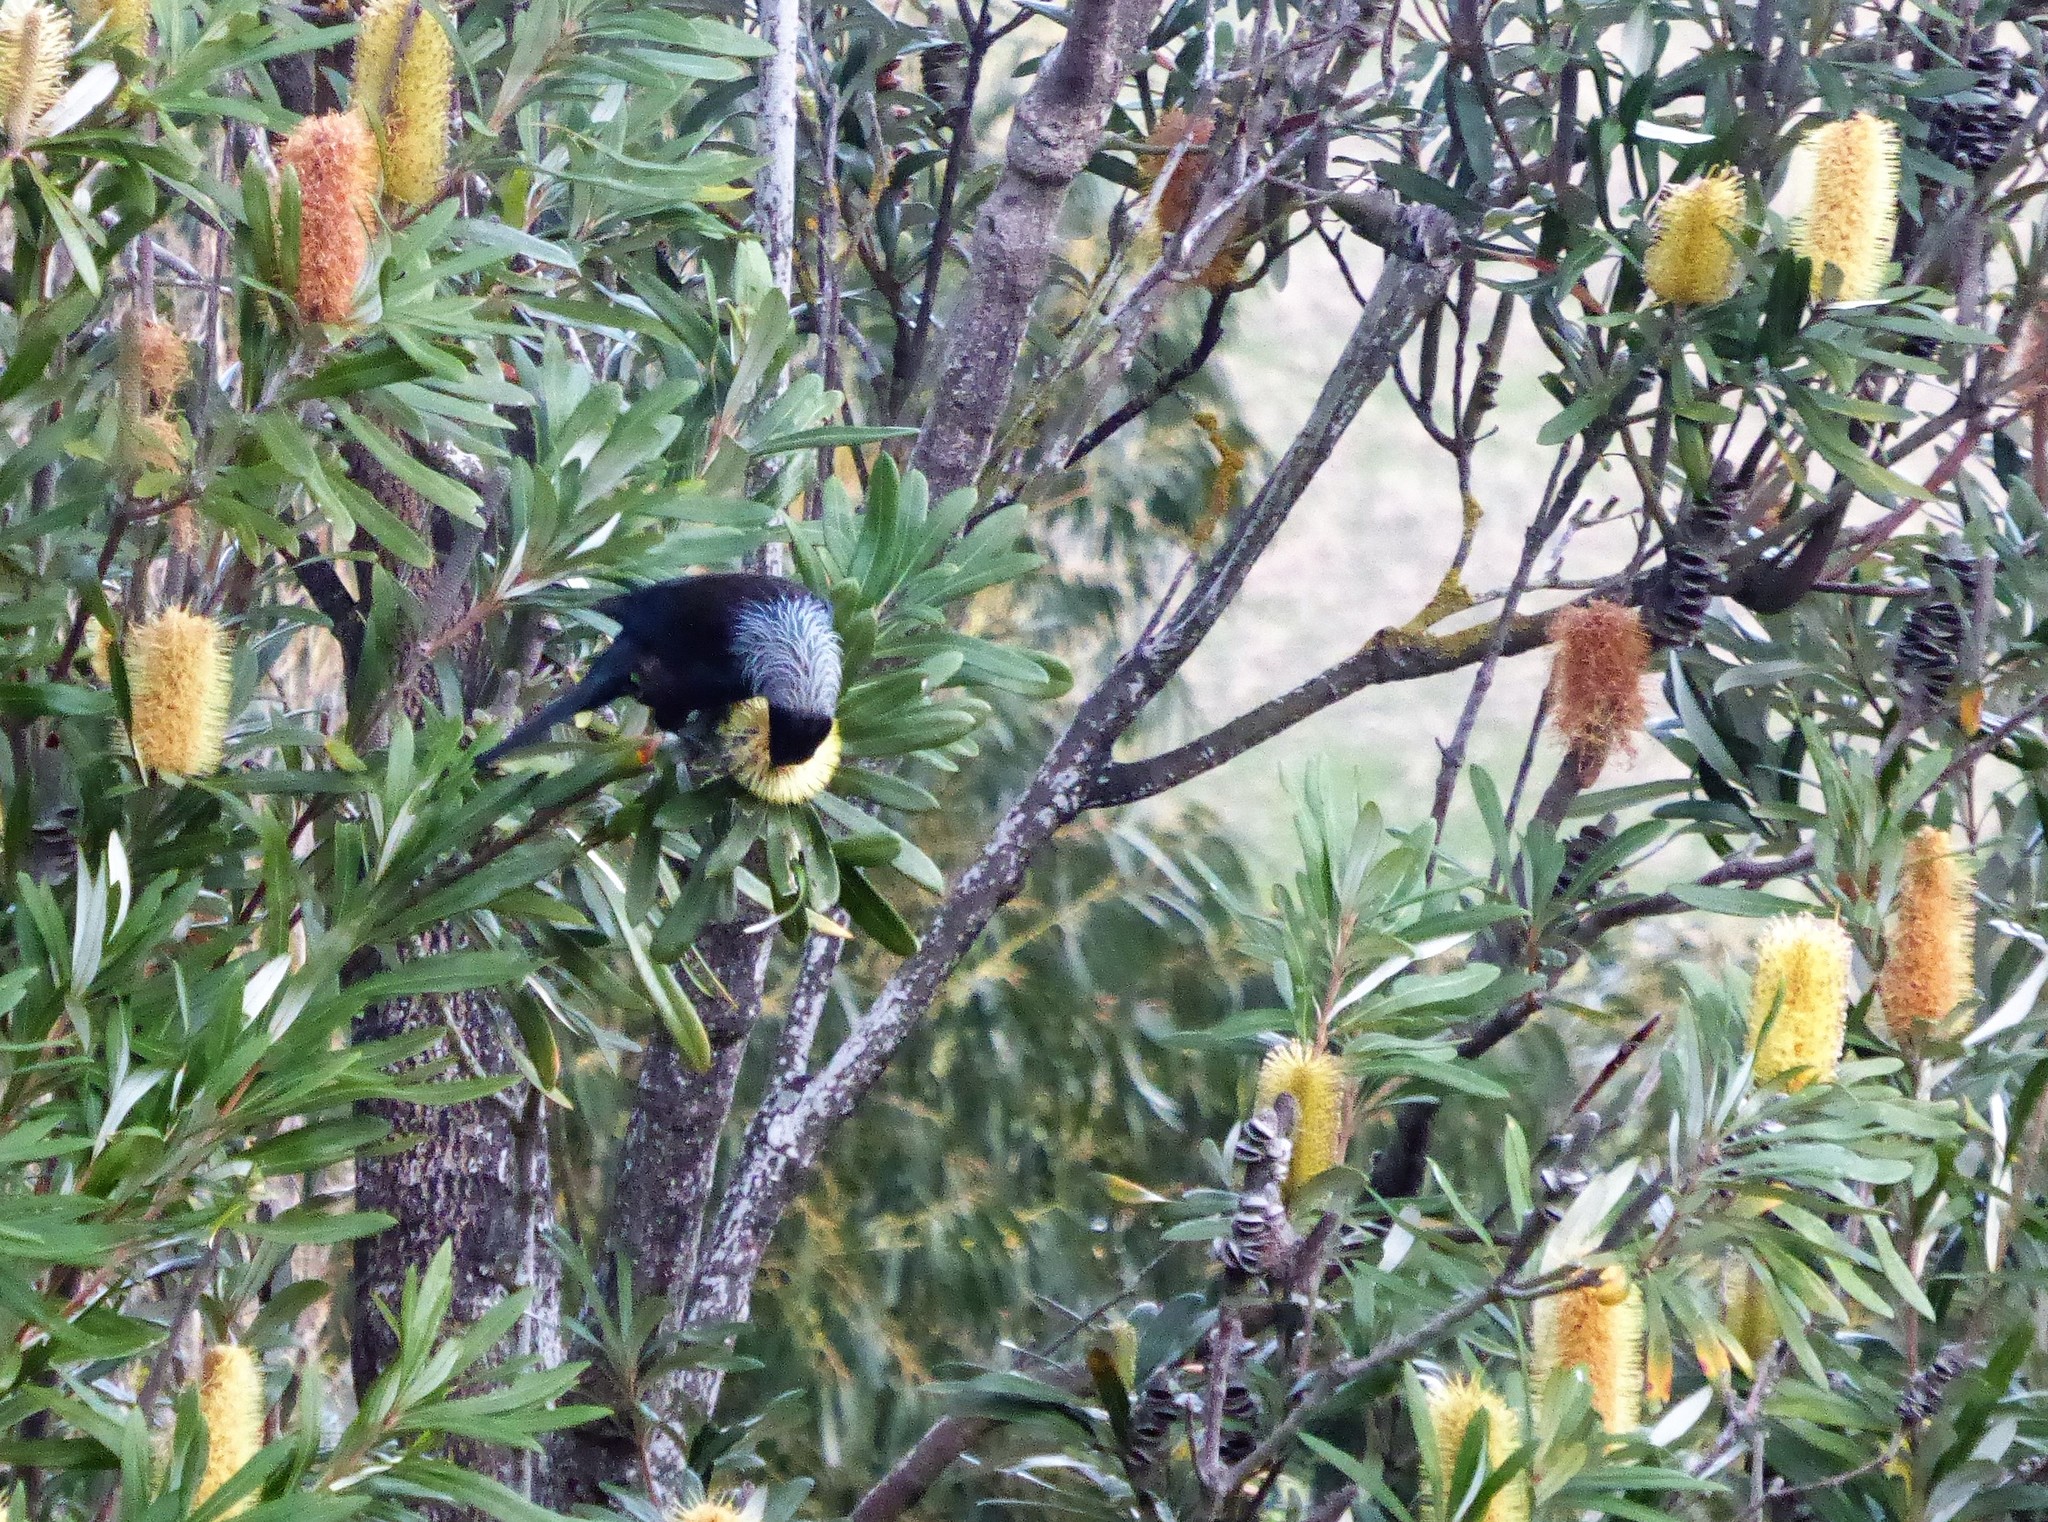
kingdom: Animalia
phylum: Chordata
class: Aves
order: Passeriformes
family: Meliphagidae
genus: Prosthemadera
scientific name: Prosthemadera novaeseelandiae
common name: Tui
